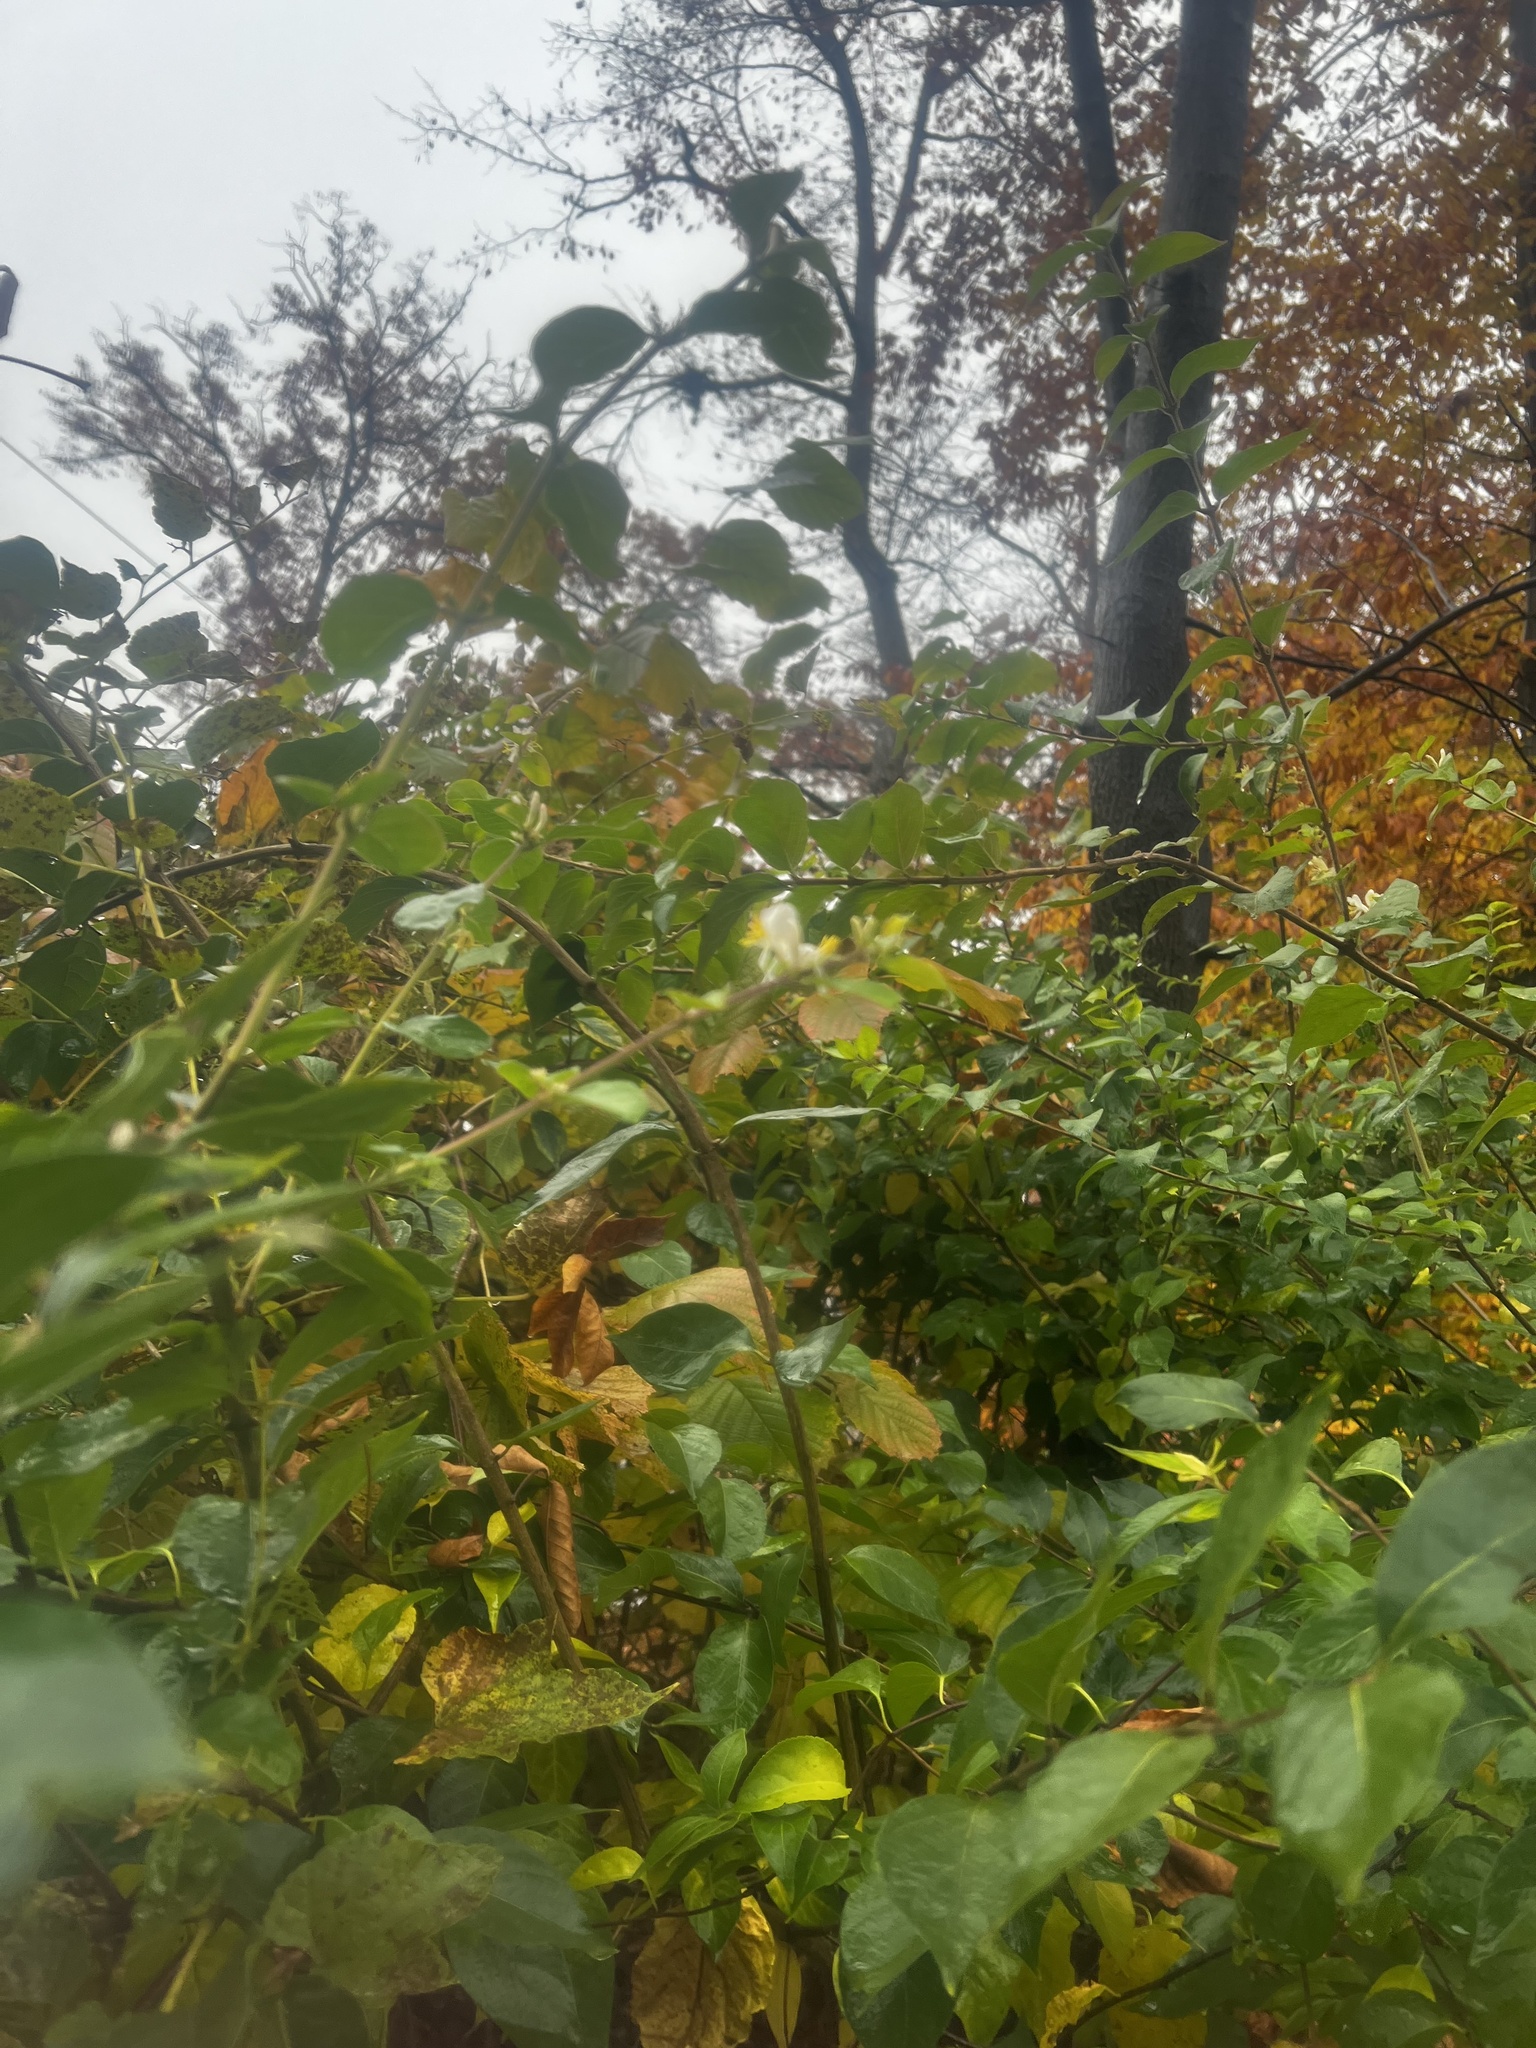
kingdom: Plantae
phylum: Tracheophyta
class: Magnoliopsida
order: Dipsacales
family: Caprifoliaceae
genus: Lonicera
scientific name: Lonicera maackii
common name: Amur honeysuckle
